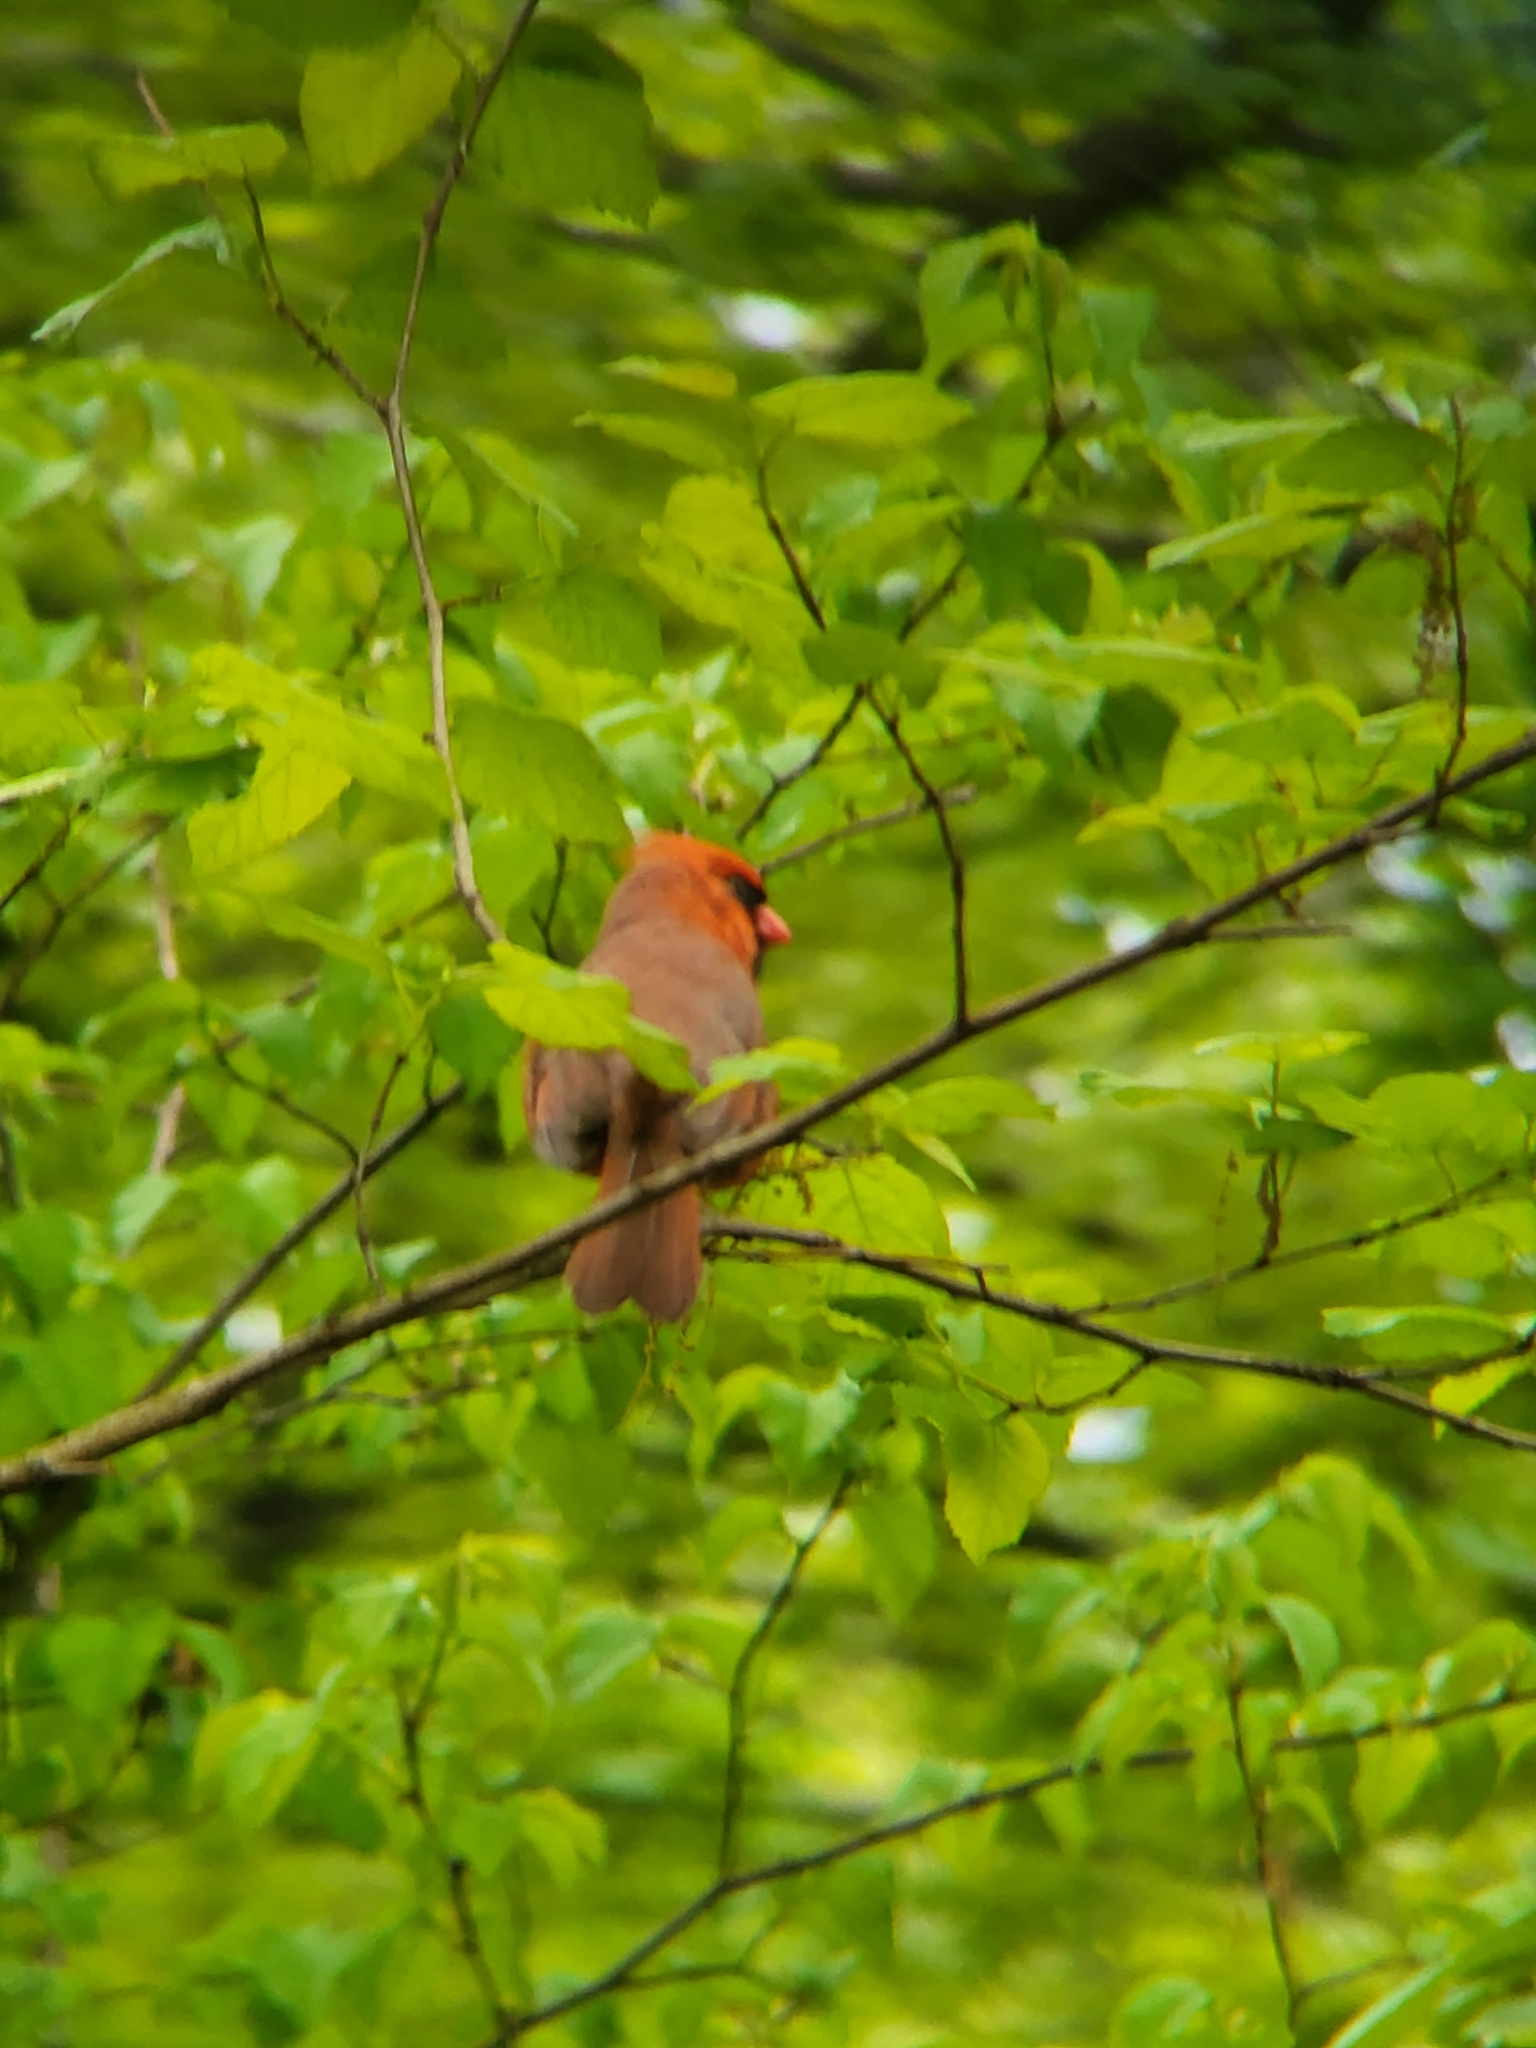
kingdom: Animalia
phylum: Chordata
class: Aves
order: Passeriformes
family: Cardinalidae
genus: Cardinalis
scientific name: Cardinalis cardinalis
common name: Northern cardinal
